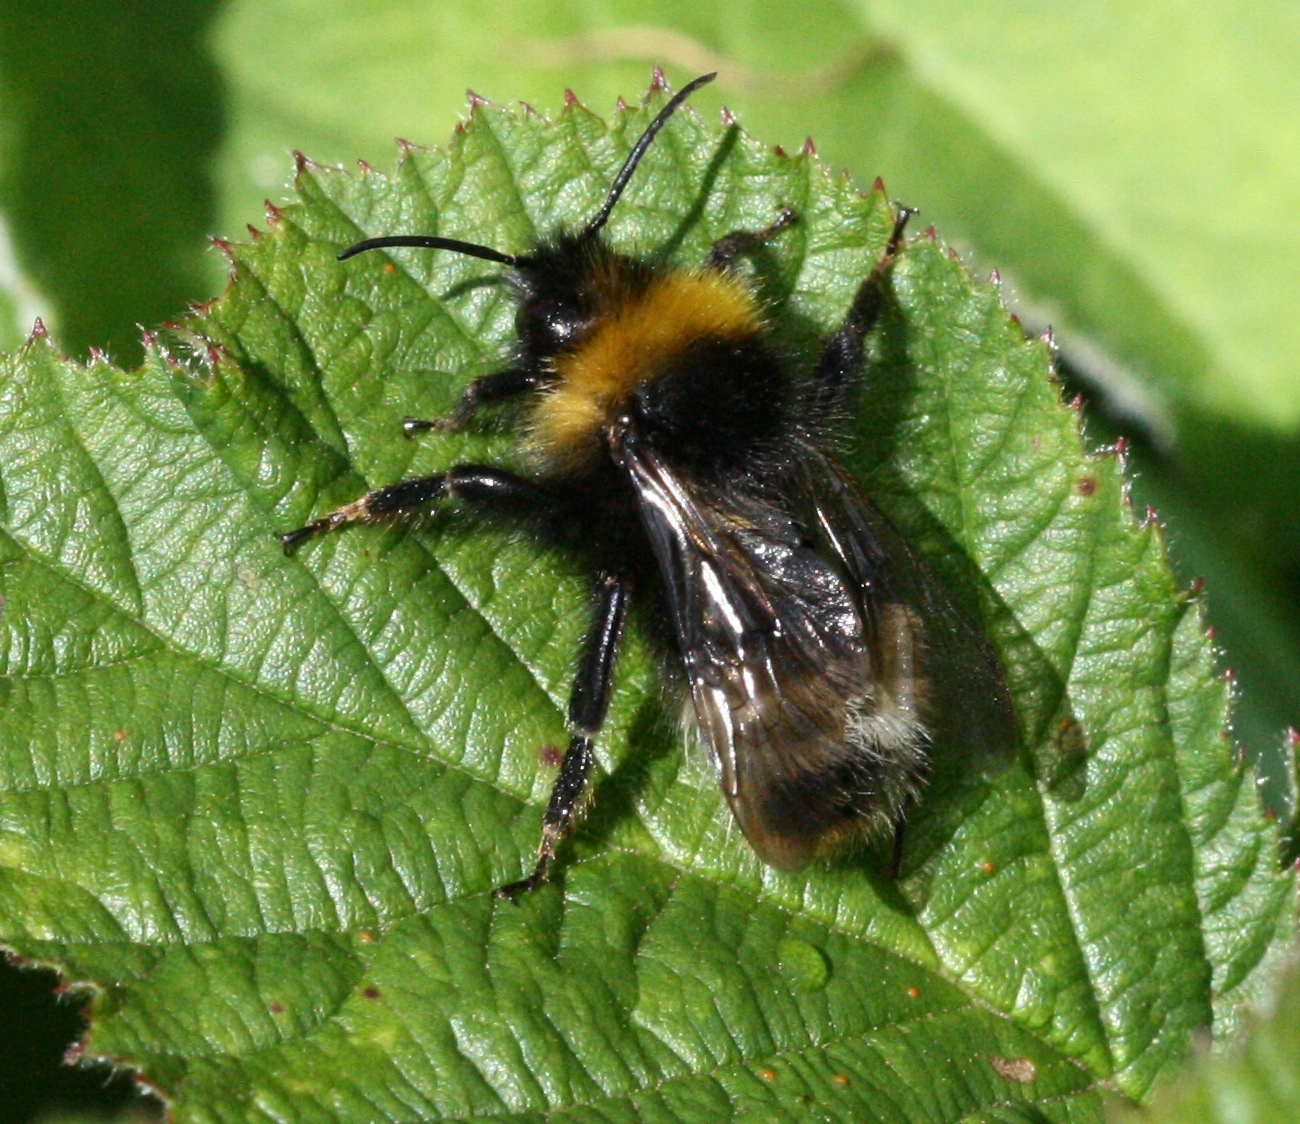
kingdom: Animalia
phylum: Arthropoda
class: Insecta
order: Hymenoptera
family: Apidae
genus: Bombus
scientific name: Bombus sylvestris
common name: Forest cuckoo bee
